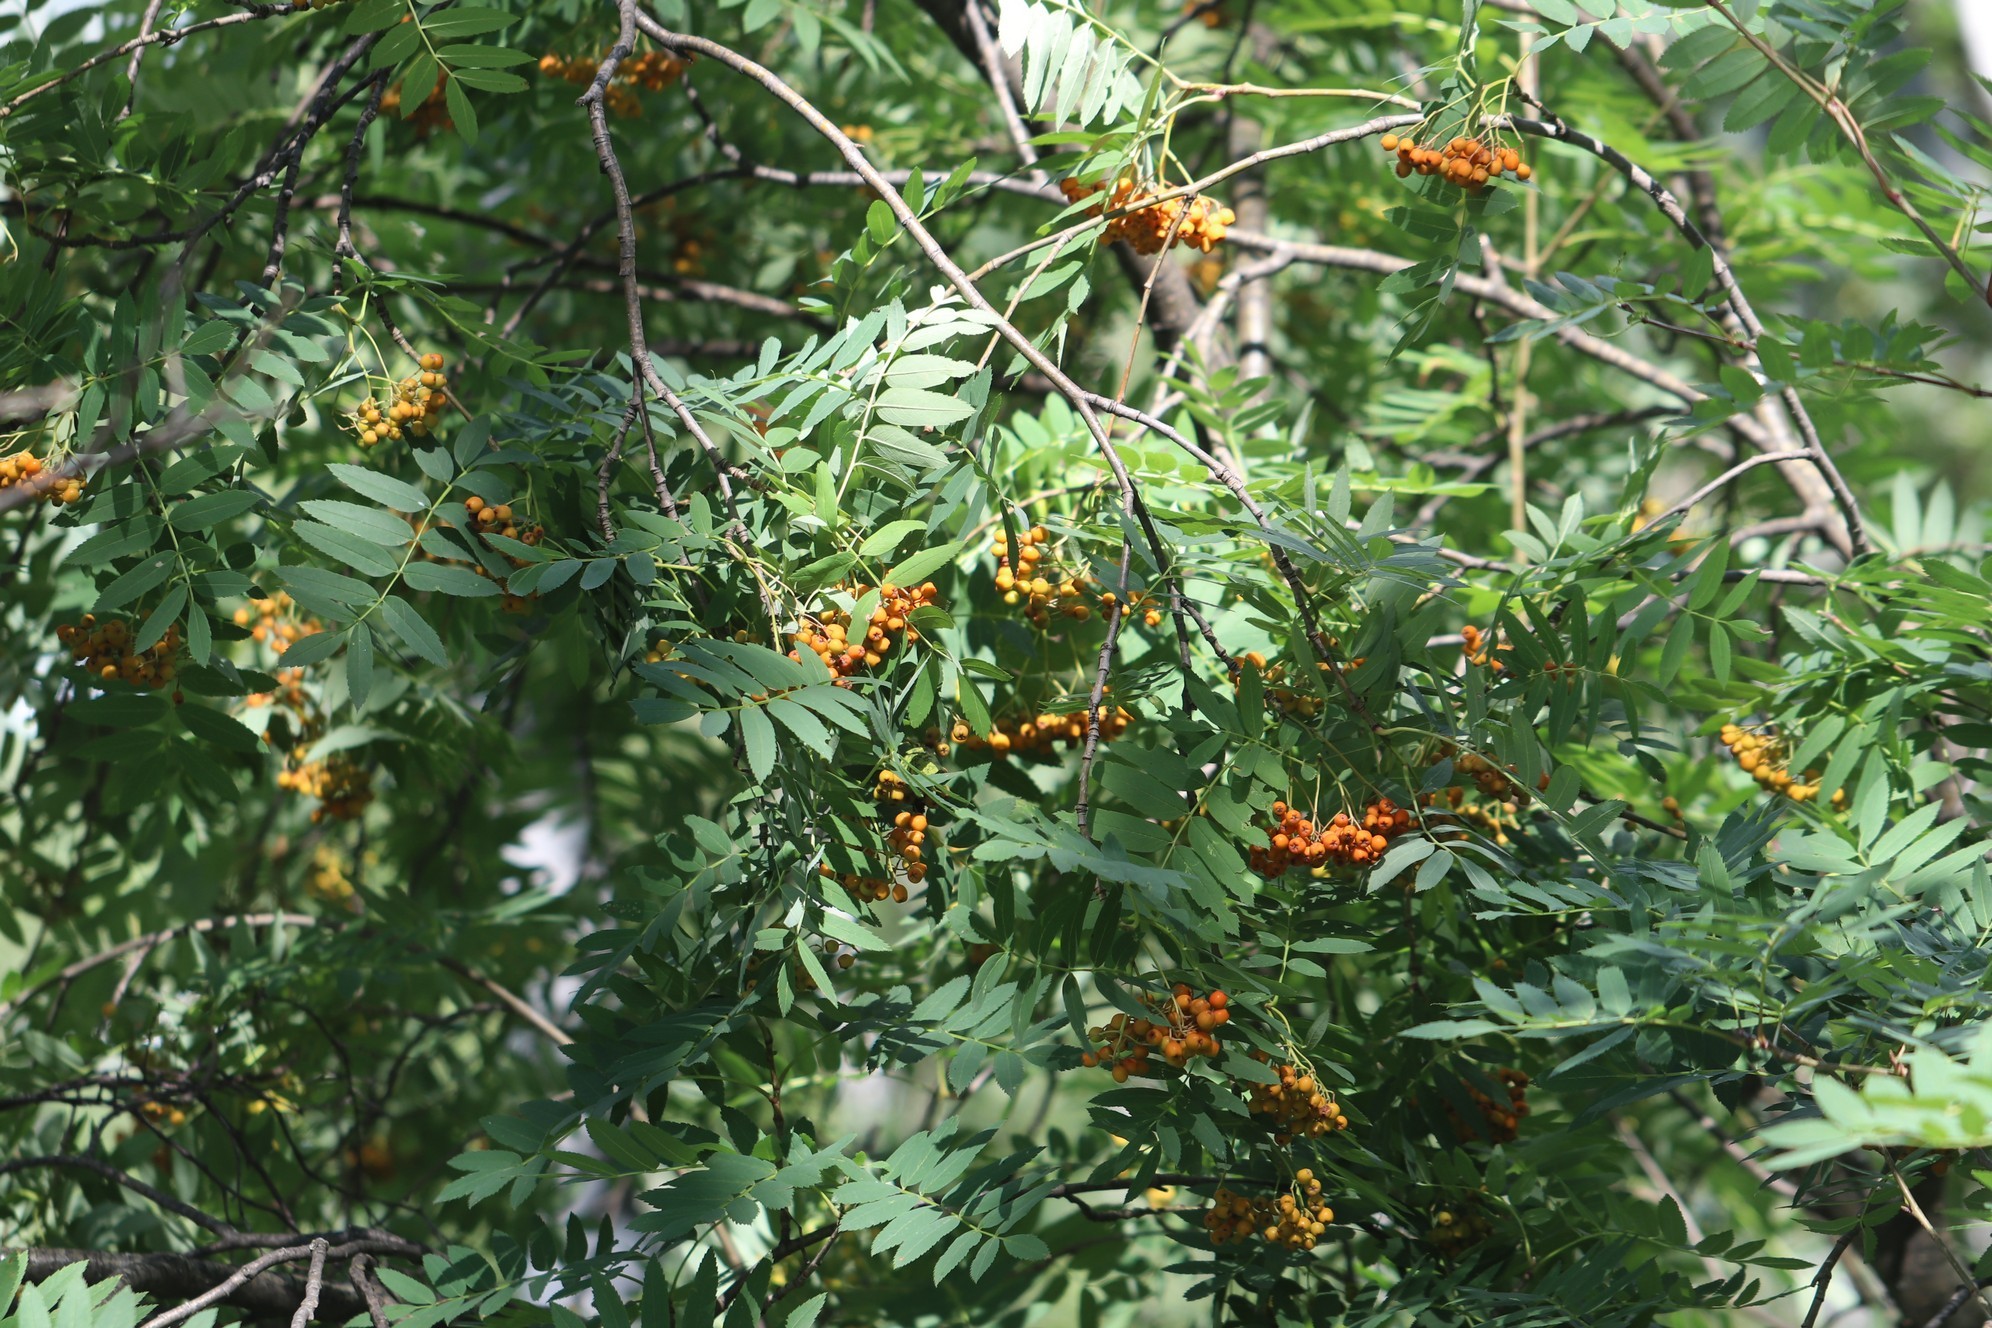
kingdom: Plantae
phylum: Tracheophyta
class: Magnoliopsida
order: Rosales
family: Rosaceae
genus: Sorbus
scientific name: Sorbus aucuparia
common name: Rowan
